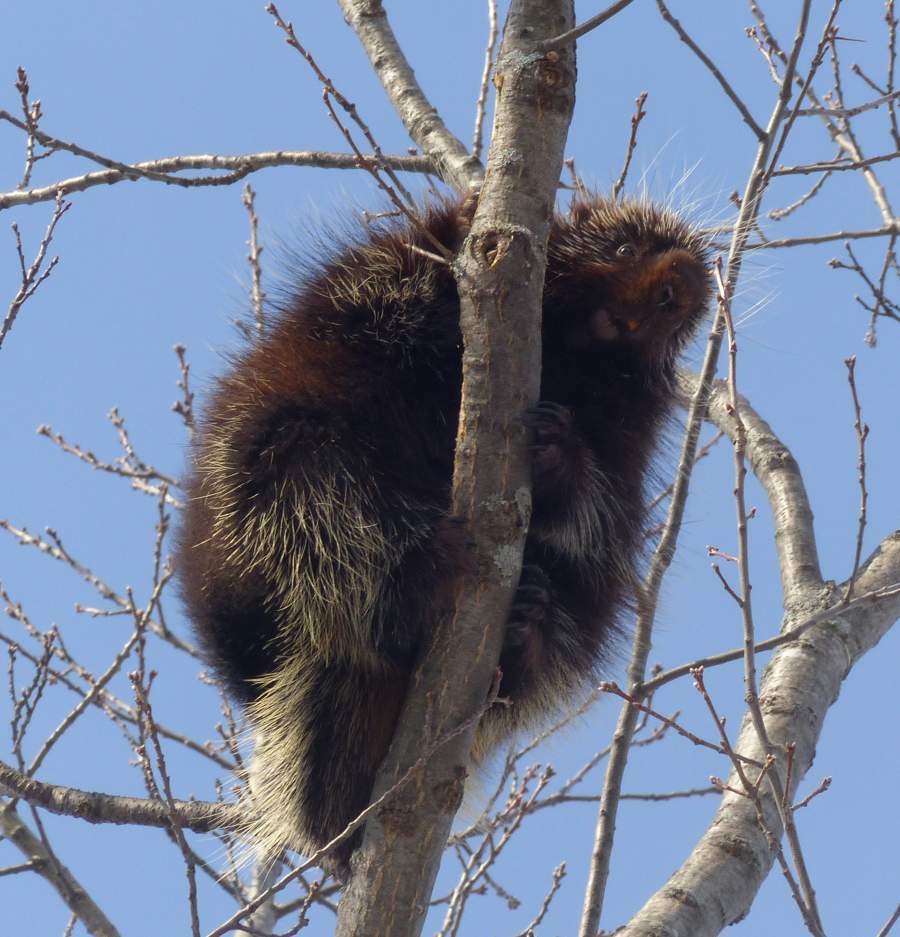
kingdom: Animalia
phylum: Chordata
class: Mammalia
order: Rodentia
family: Erethizontidae
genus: Erethizon
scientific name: Erethizon dorsatus
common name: North american porcupine
